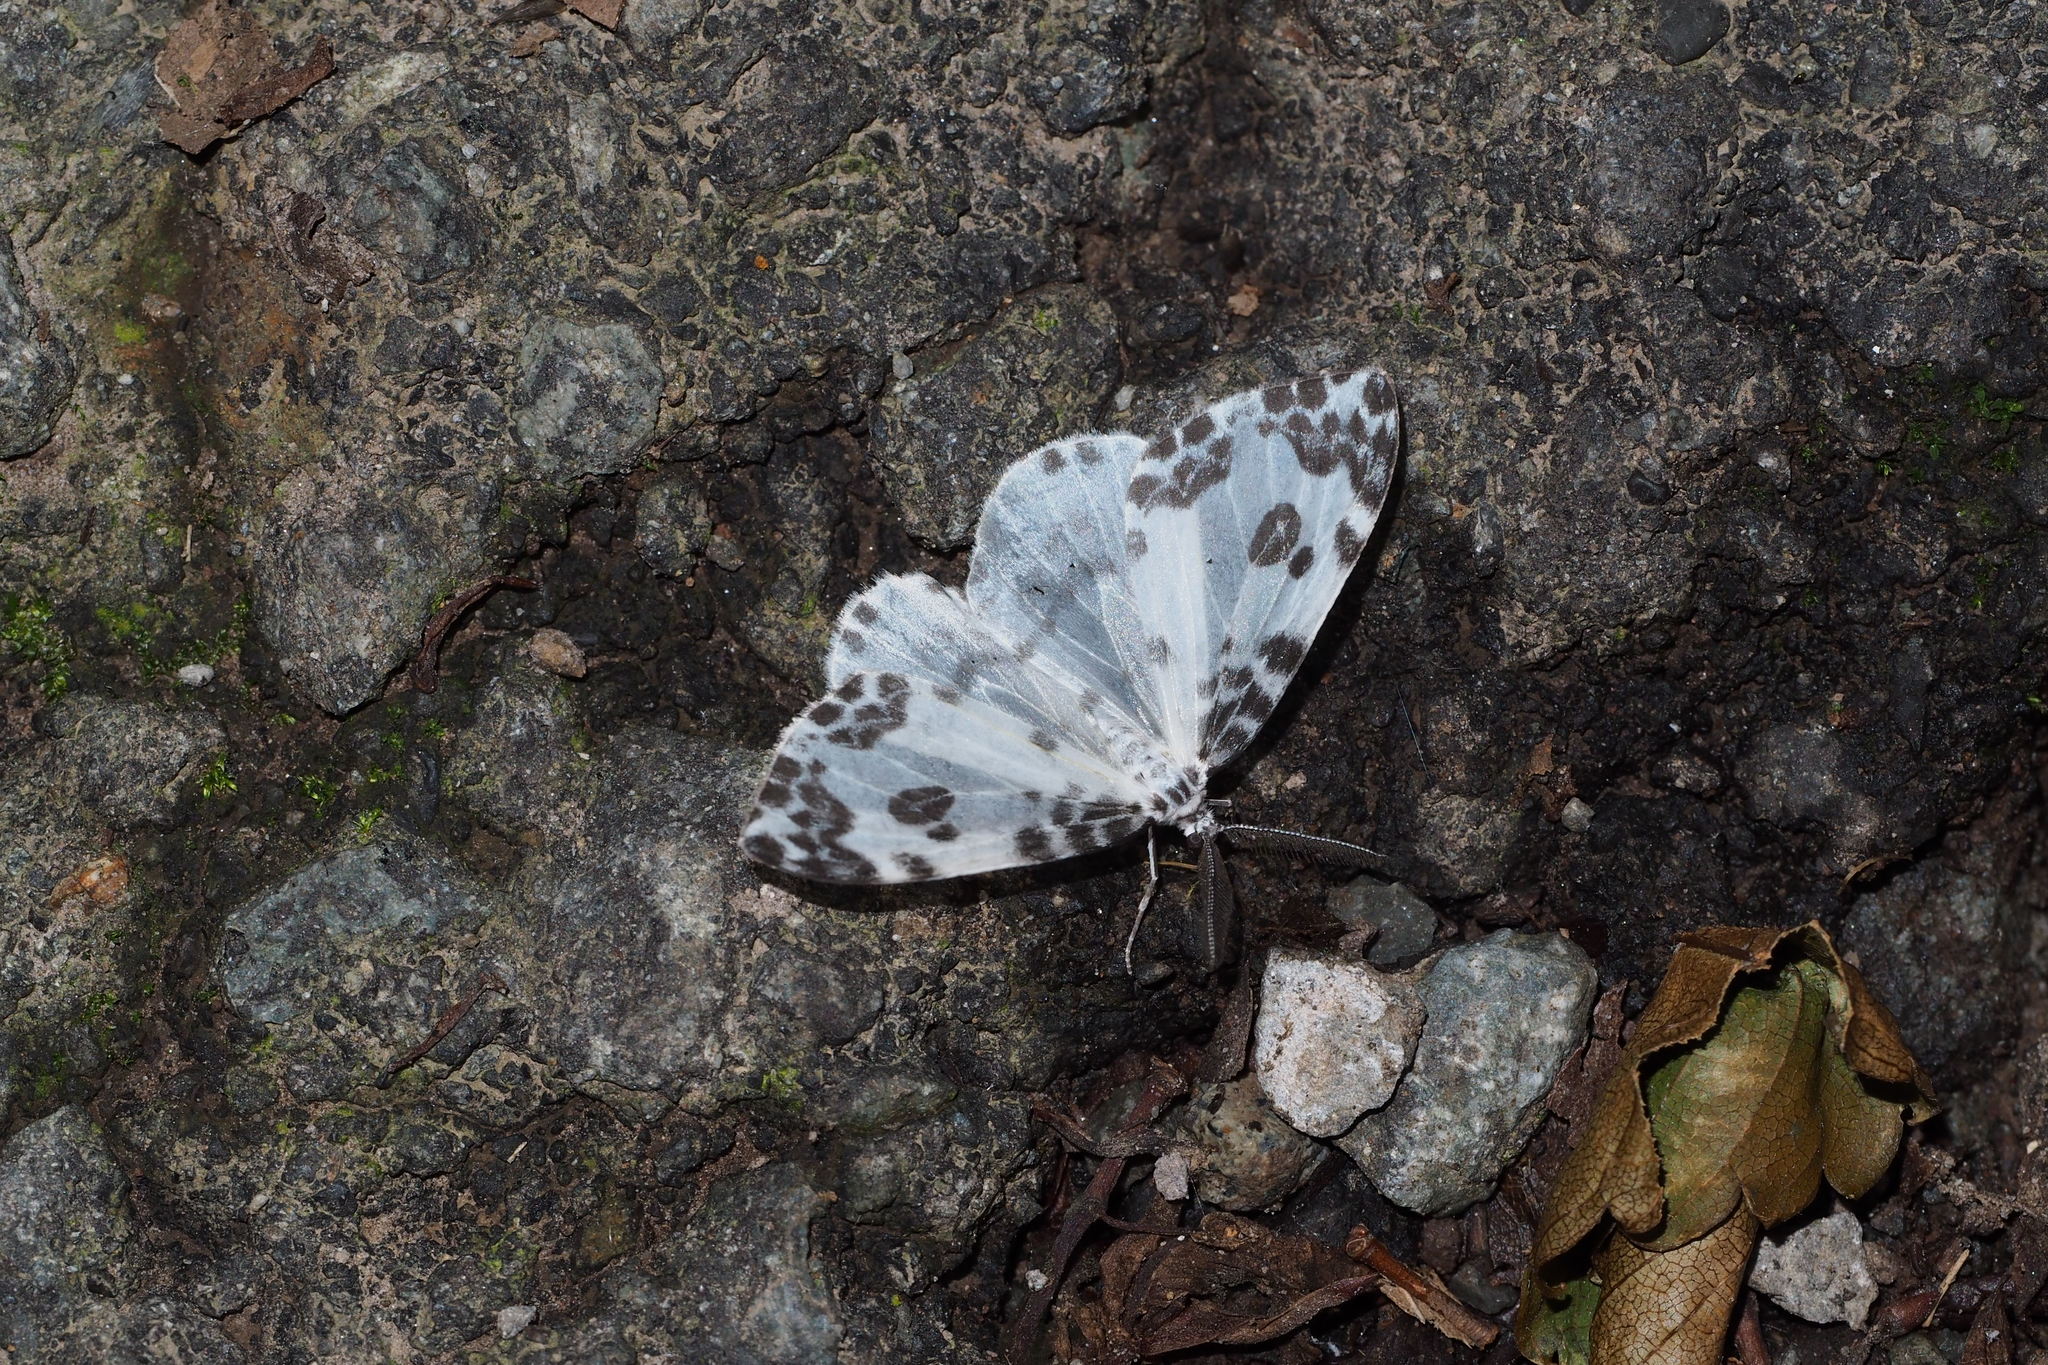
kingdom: Animalia
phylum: Arthropoda
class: Insecta
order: Lepidoptera
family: Drepanidae
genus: Deroca
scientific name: Deroca inconclusa
